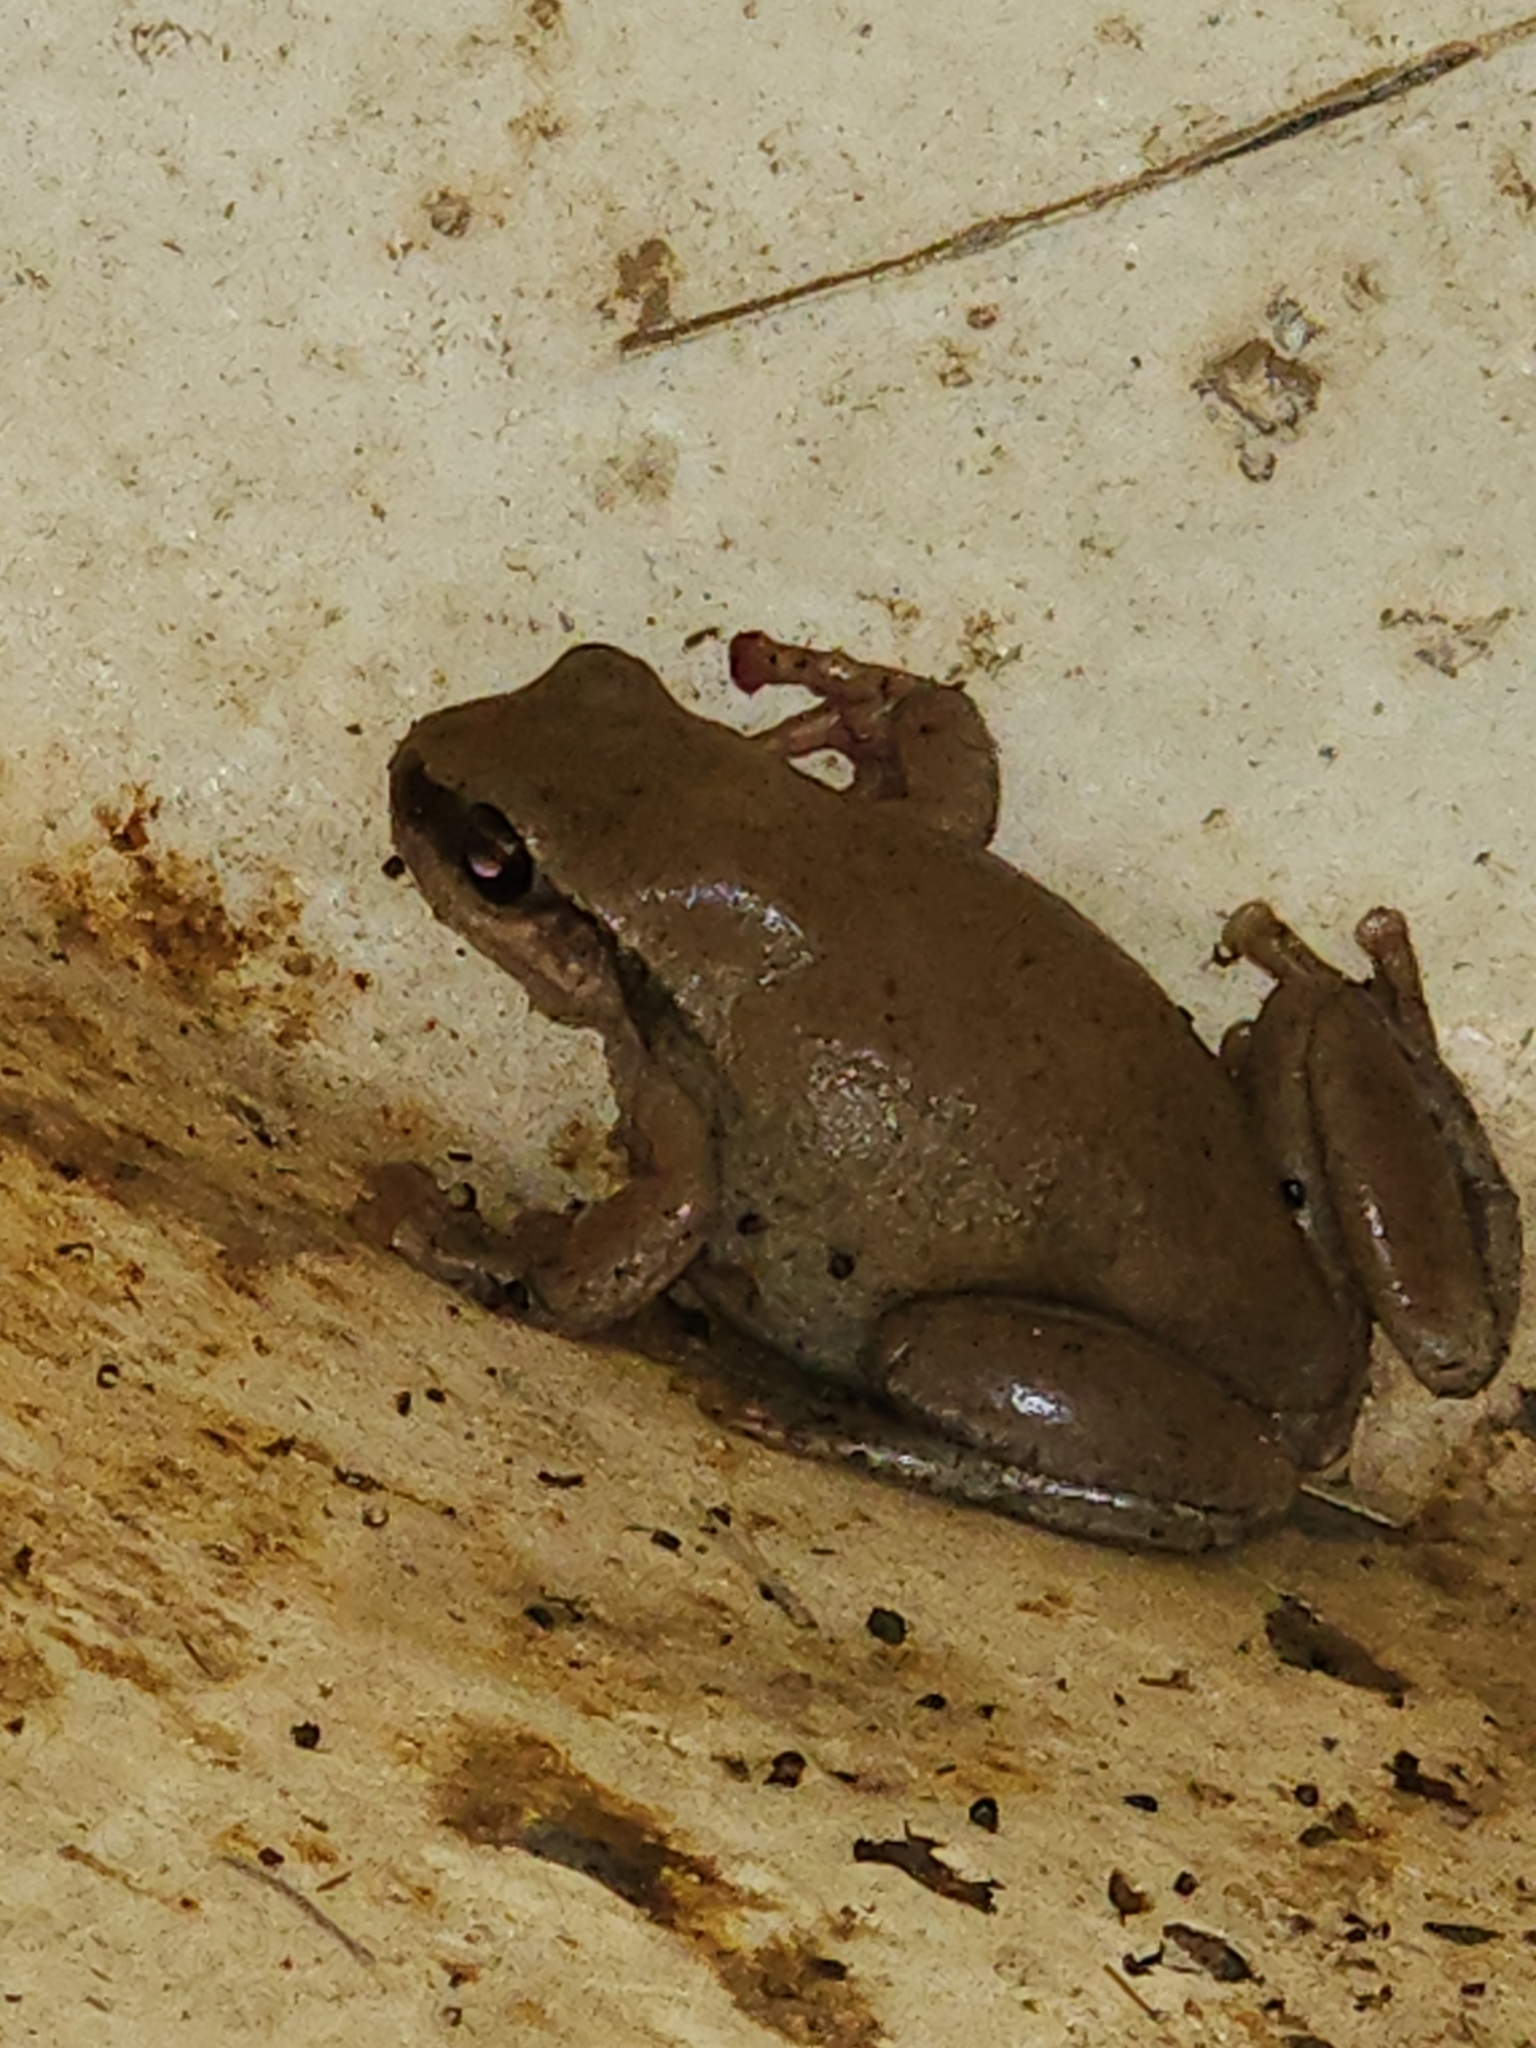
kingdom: Animalia
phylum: Chordata
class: Amphibia
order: Anura
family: Pelodryadidae
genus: Litoria
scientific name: Litoria rubella
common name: Desert tree frog
